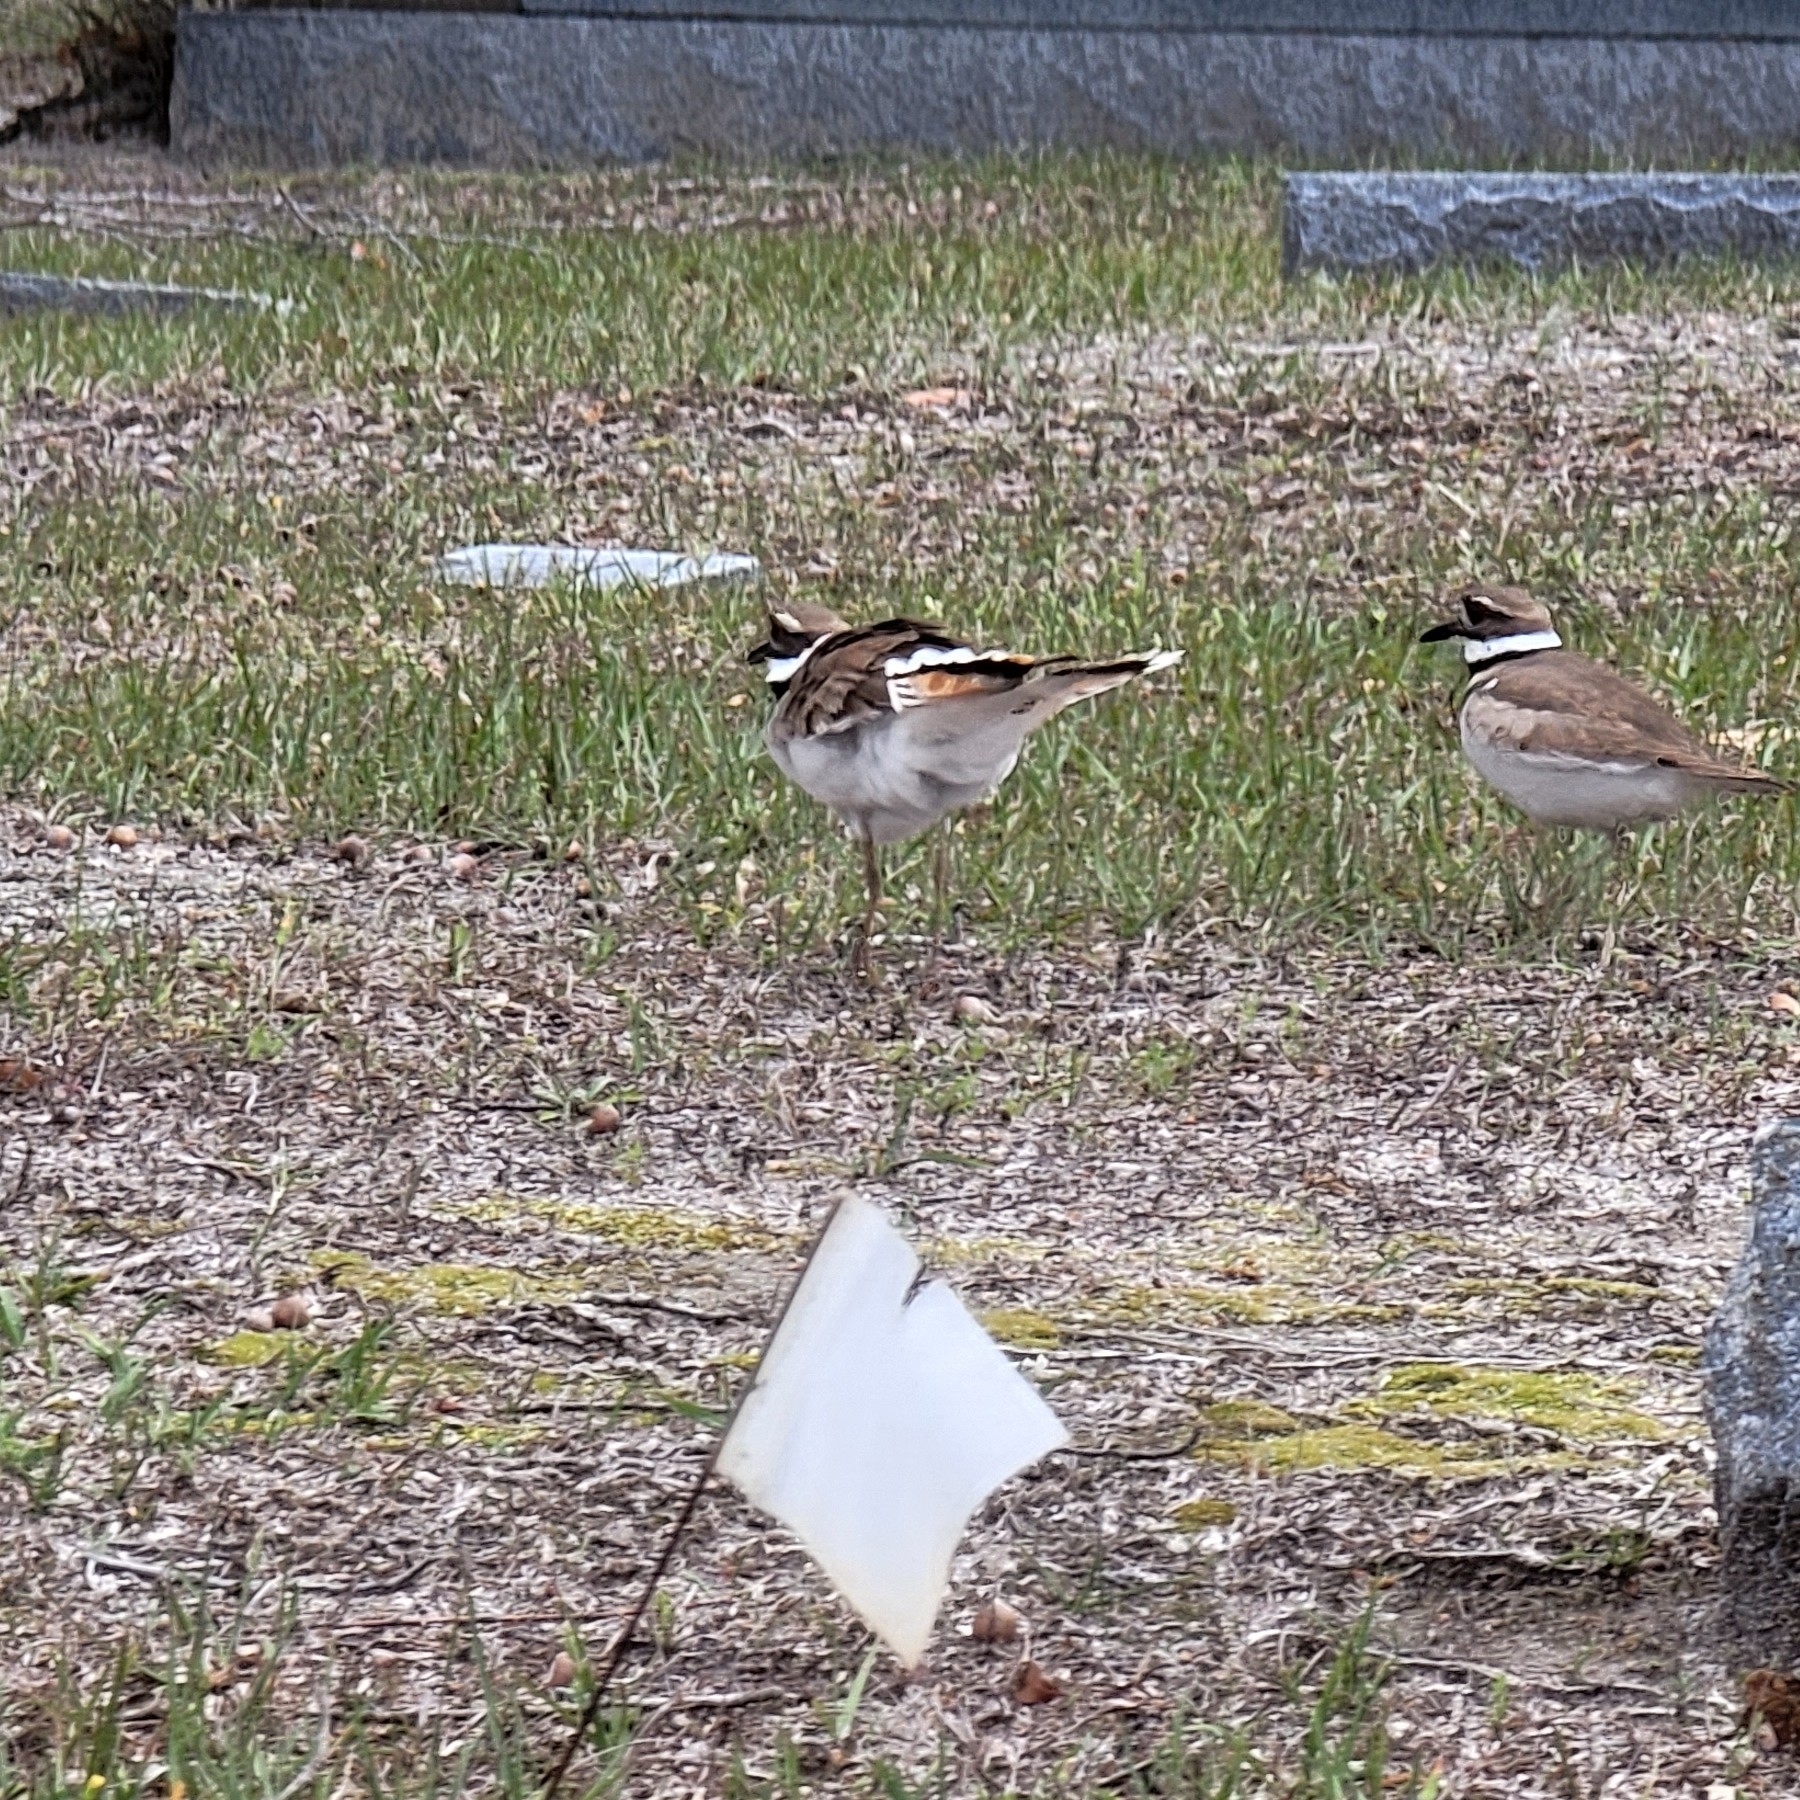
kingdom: Animalia
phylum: Chordata
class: Aves
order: Charadriiformes
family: Charadriidae
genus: Charadrius
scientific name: Charadrius vociferus
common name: Killdeer
